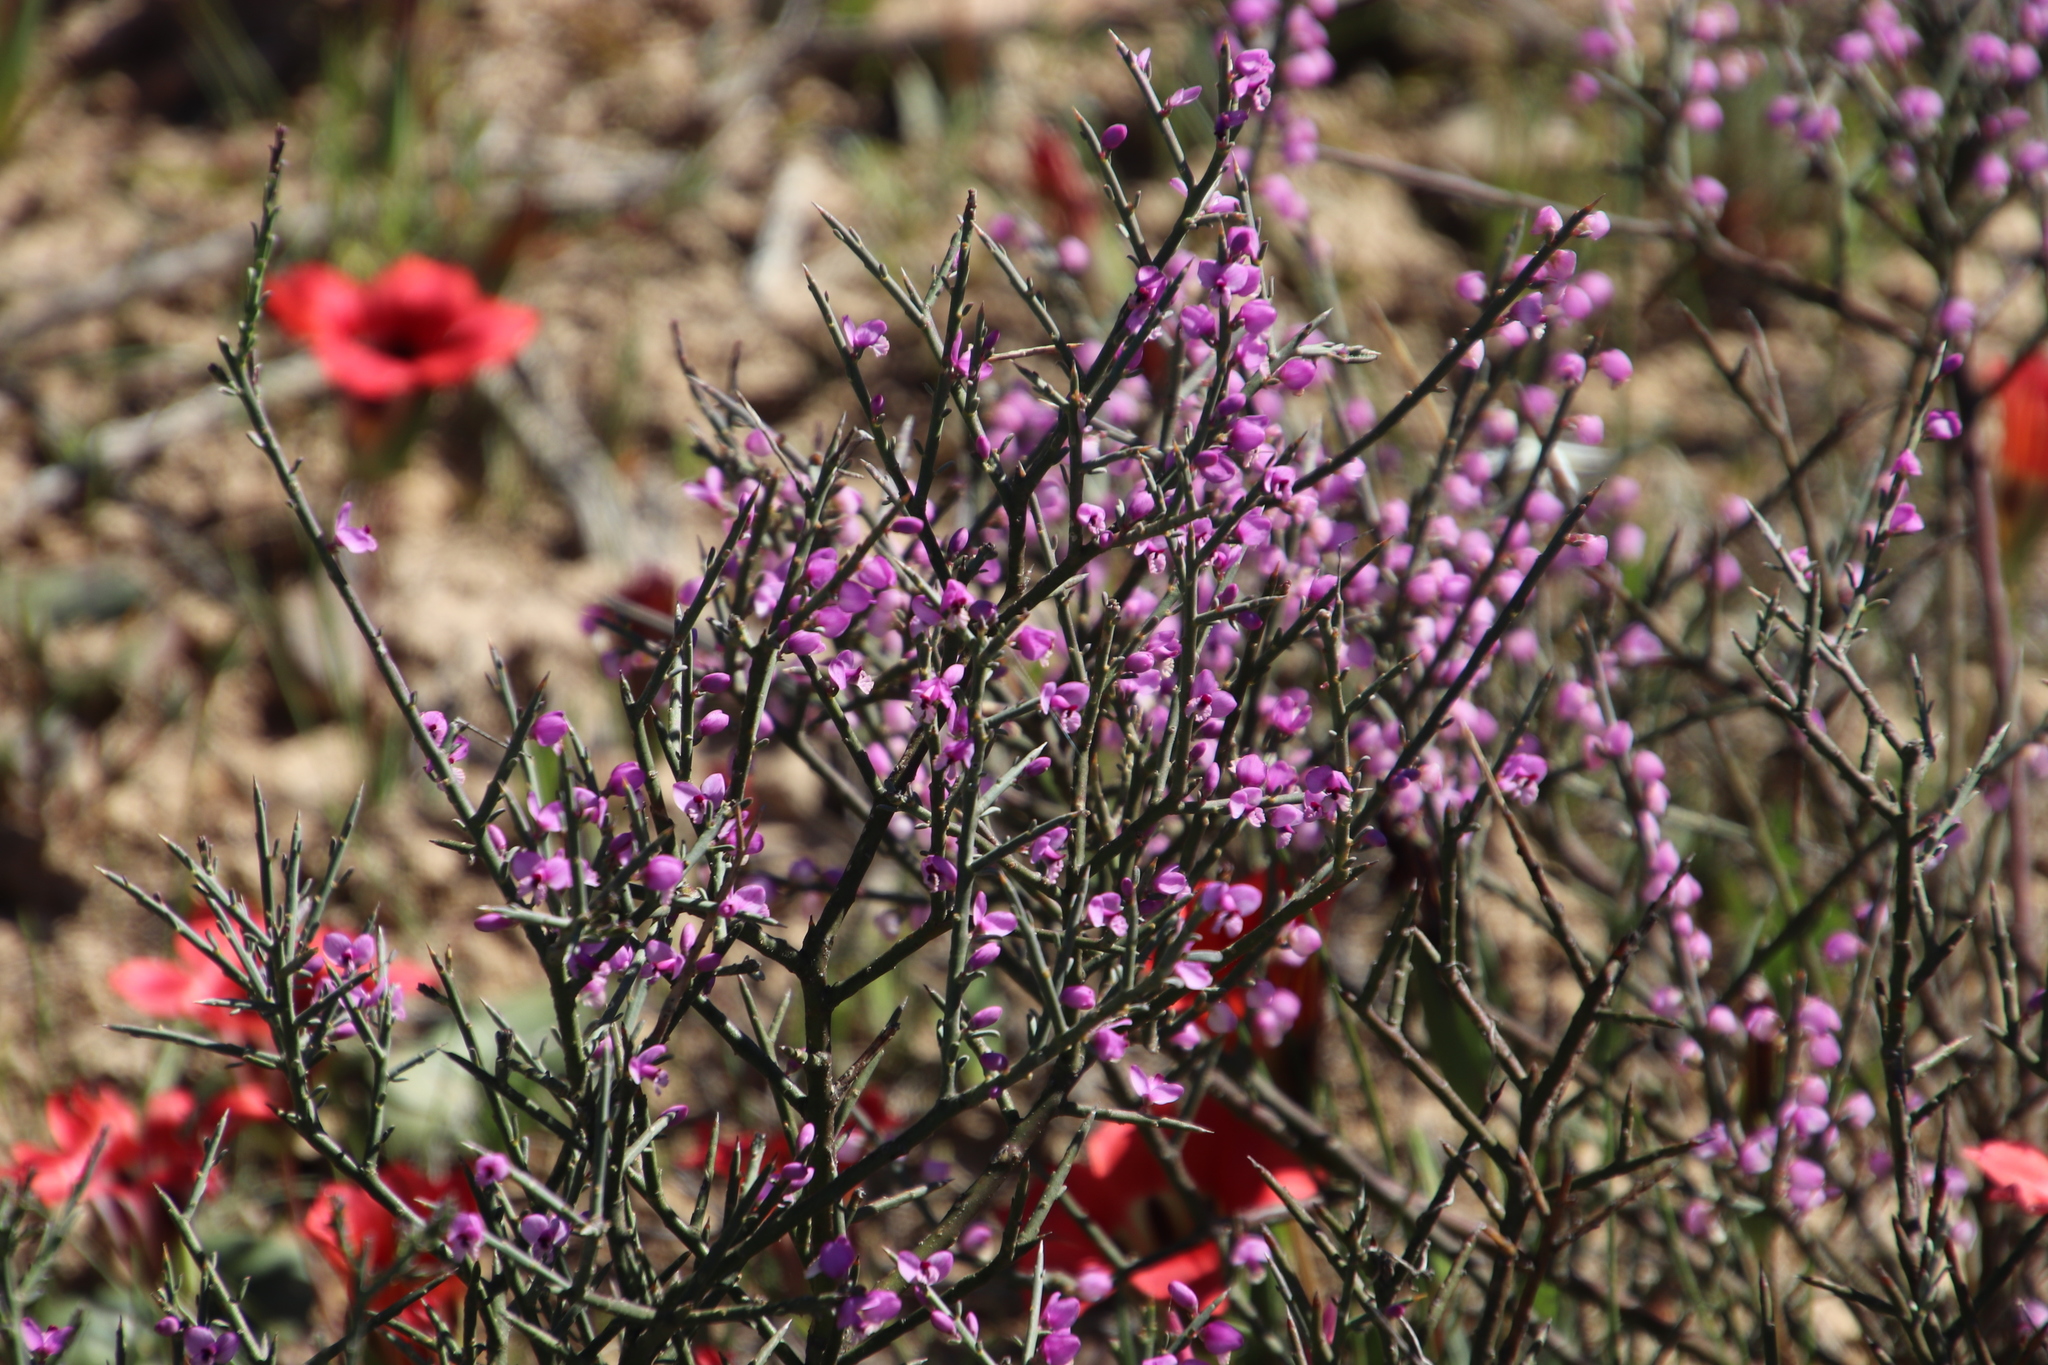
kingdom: Plantae
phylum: Tracheophyta
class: Magnoliopsida
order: Fabales
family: Polygalaceae
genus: Muraltia
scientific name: Muraltia spinosa
